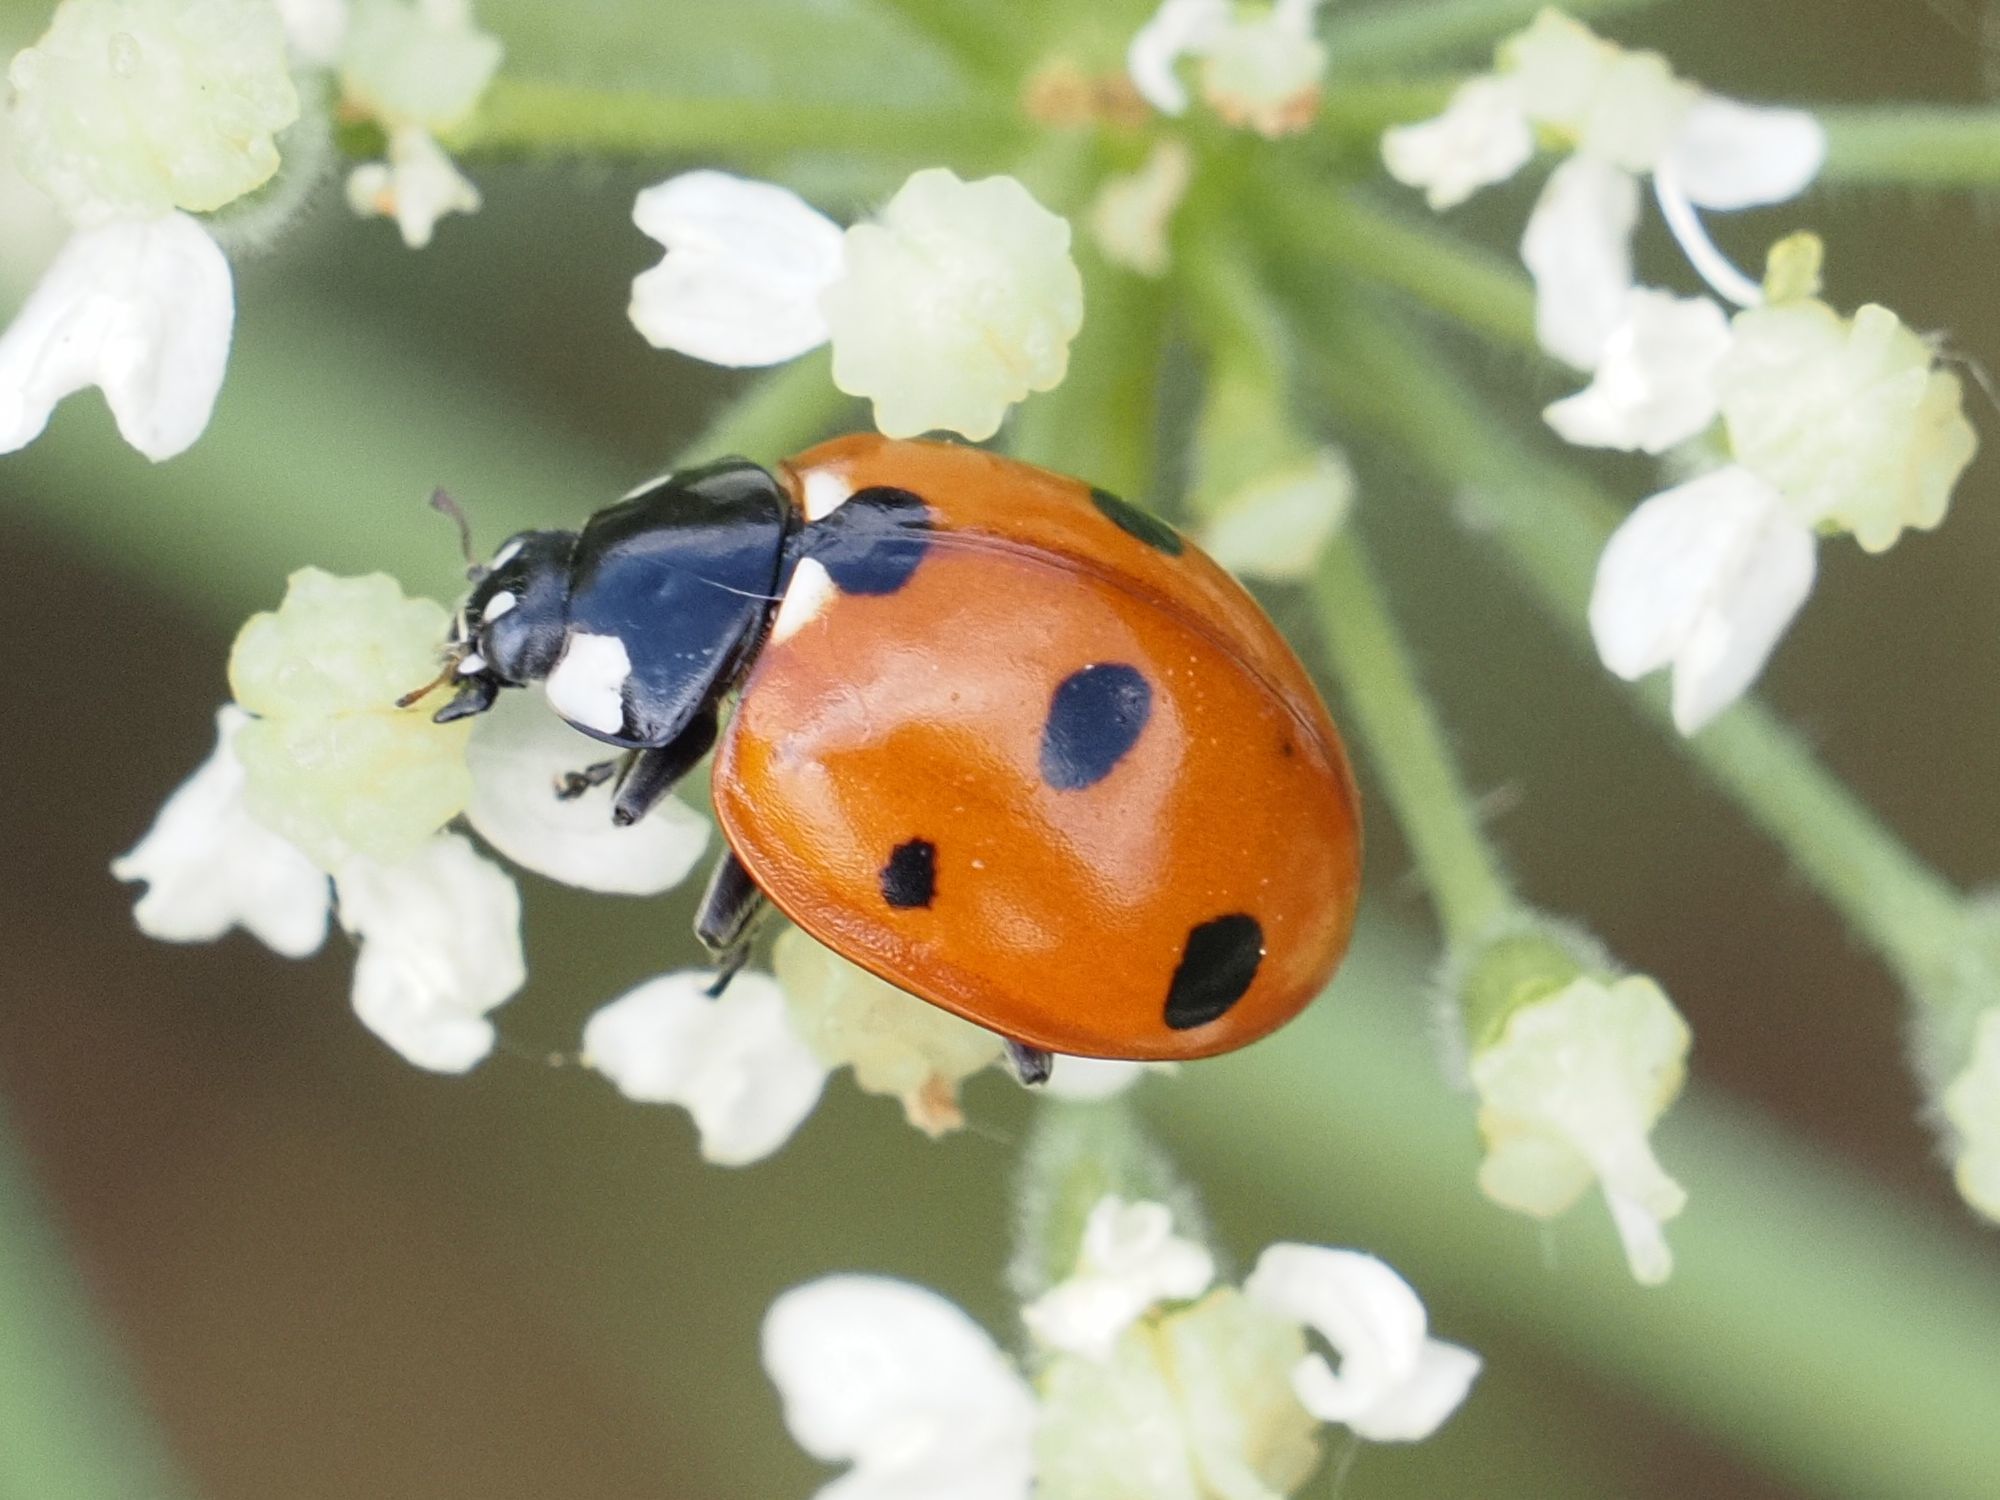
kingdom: Animalia
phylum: Arthropoda
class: Insecta
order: Coleoptera
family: Coccinellidae
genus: Coccinella
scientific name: Coccinella septempunctata
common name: Sevenspotted lady beetle
